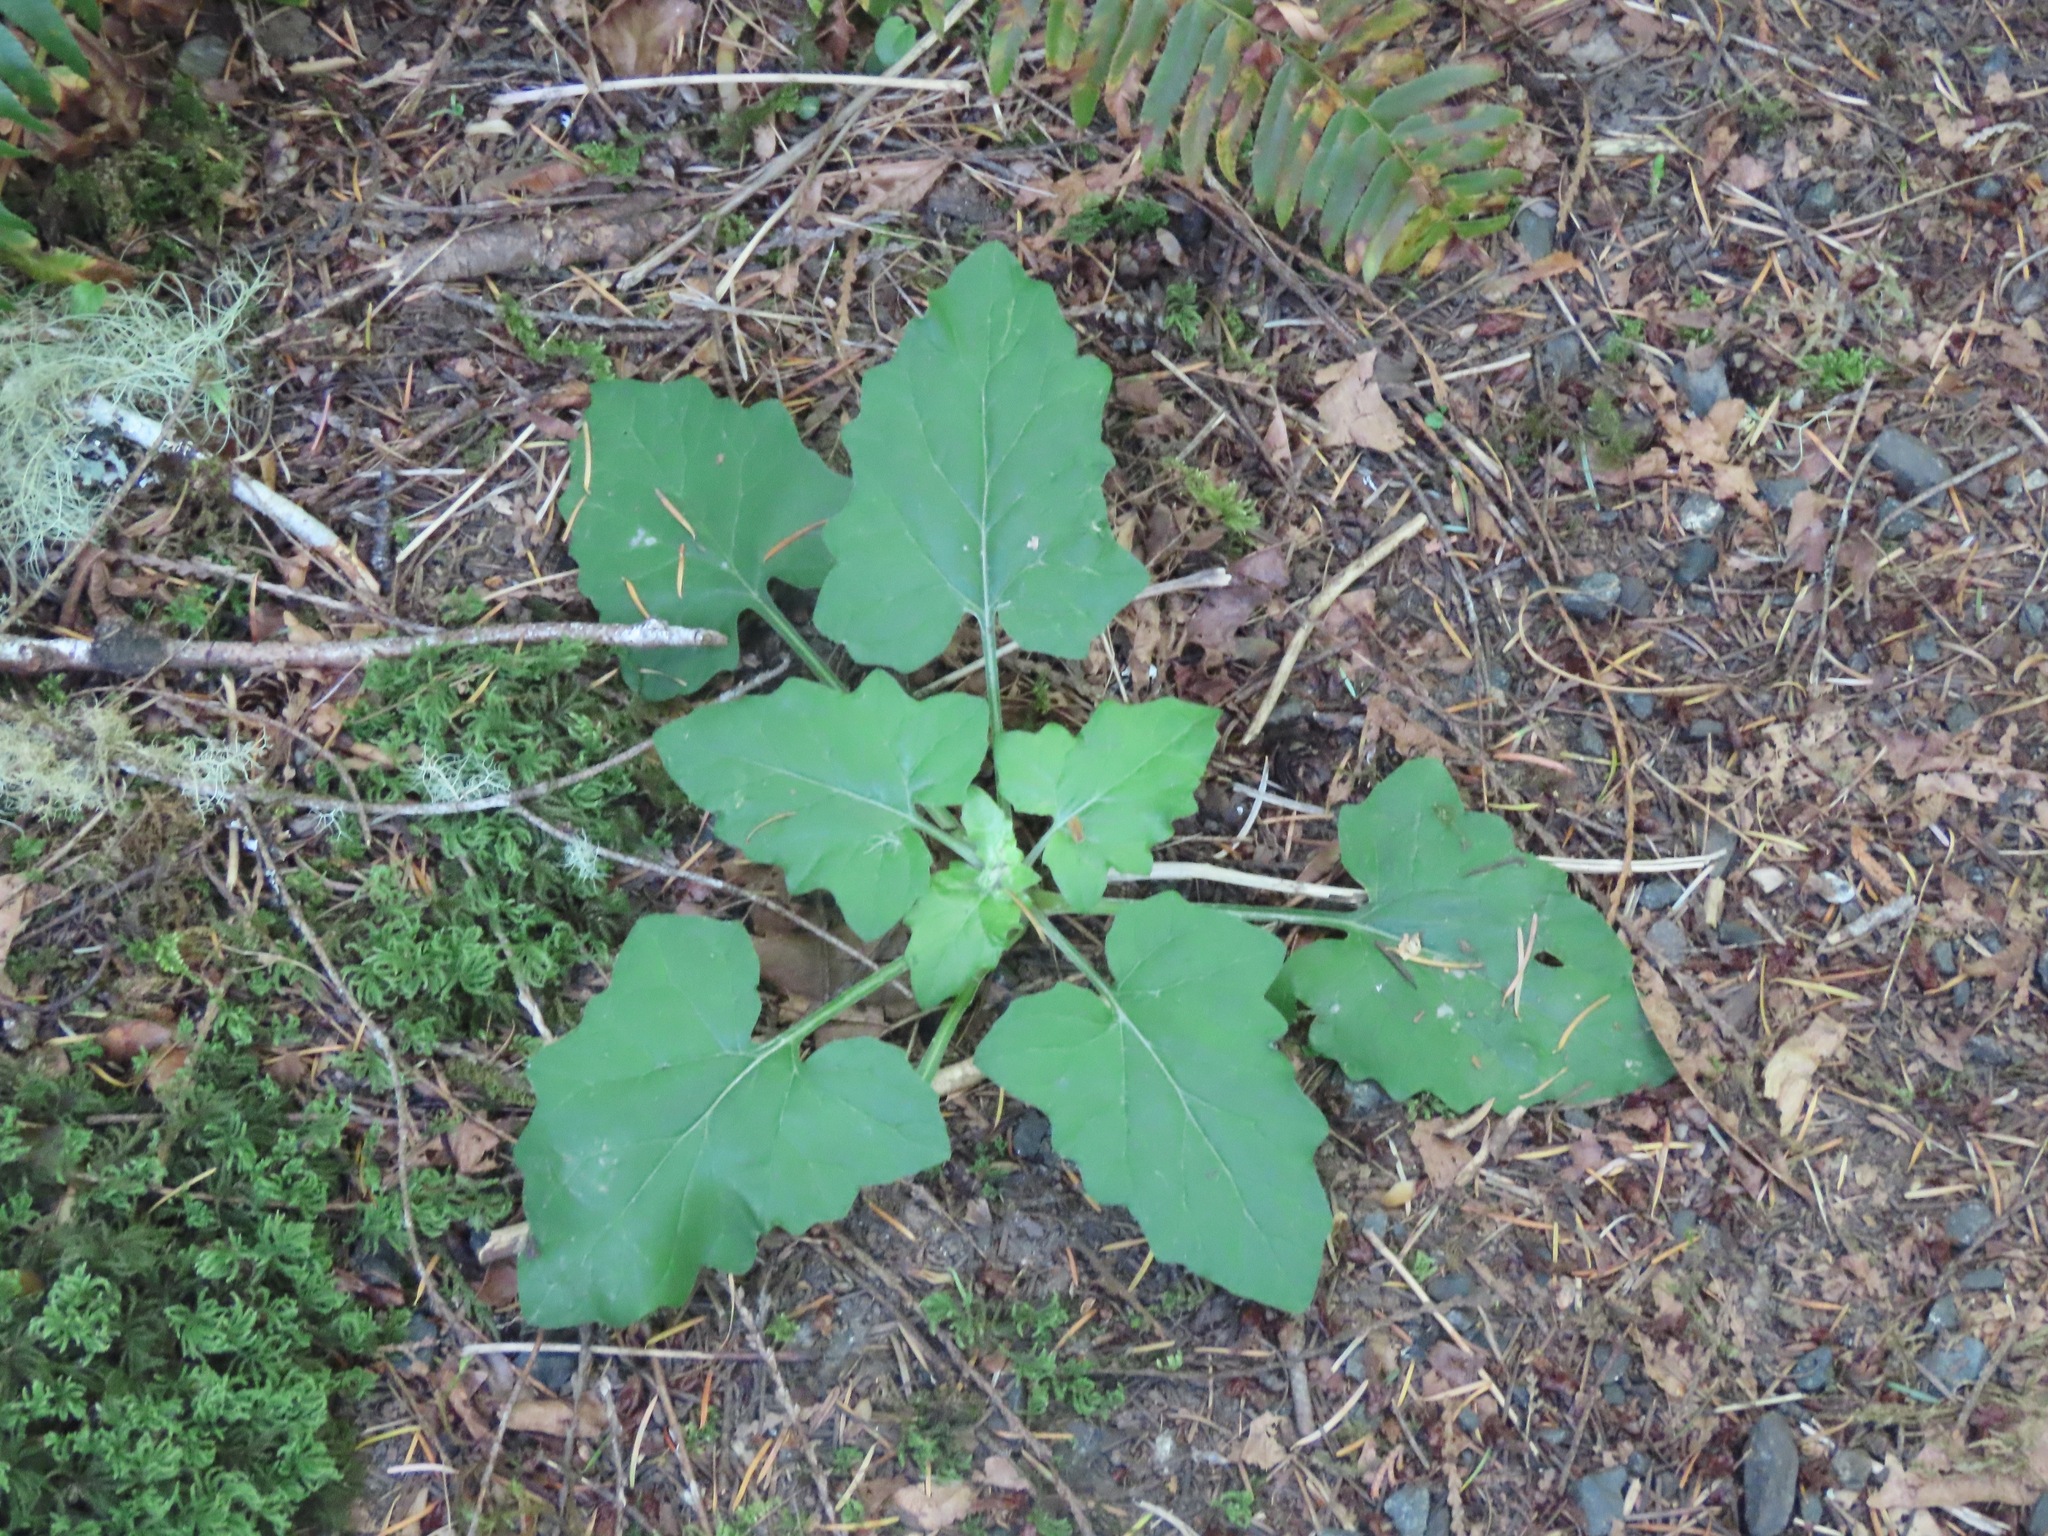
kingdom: Plantae
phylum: Tracheophyta
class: Magnoliopsida
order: Asterales
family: Asteraceae
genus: Adenocaulon
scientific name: Adenocaulon bicolor
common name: Trailplant
